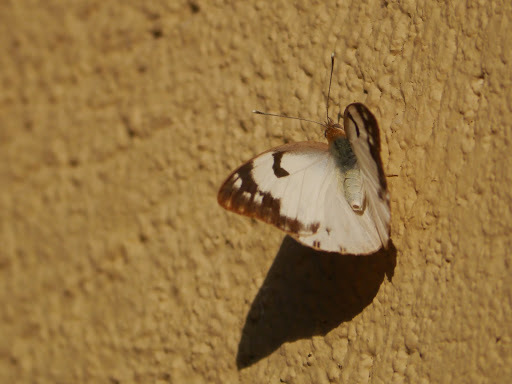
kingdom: Animalia
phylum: Arthropoda
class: Insecta
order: Lepidoptera
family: Pieridae
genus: Belenois
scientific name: Belenois gidica
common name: Pointed caper white
